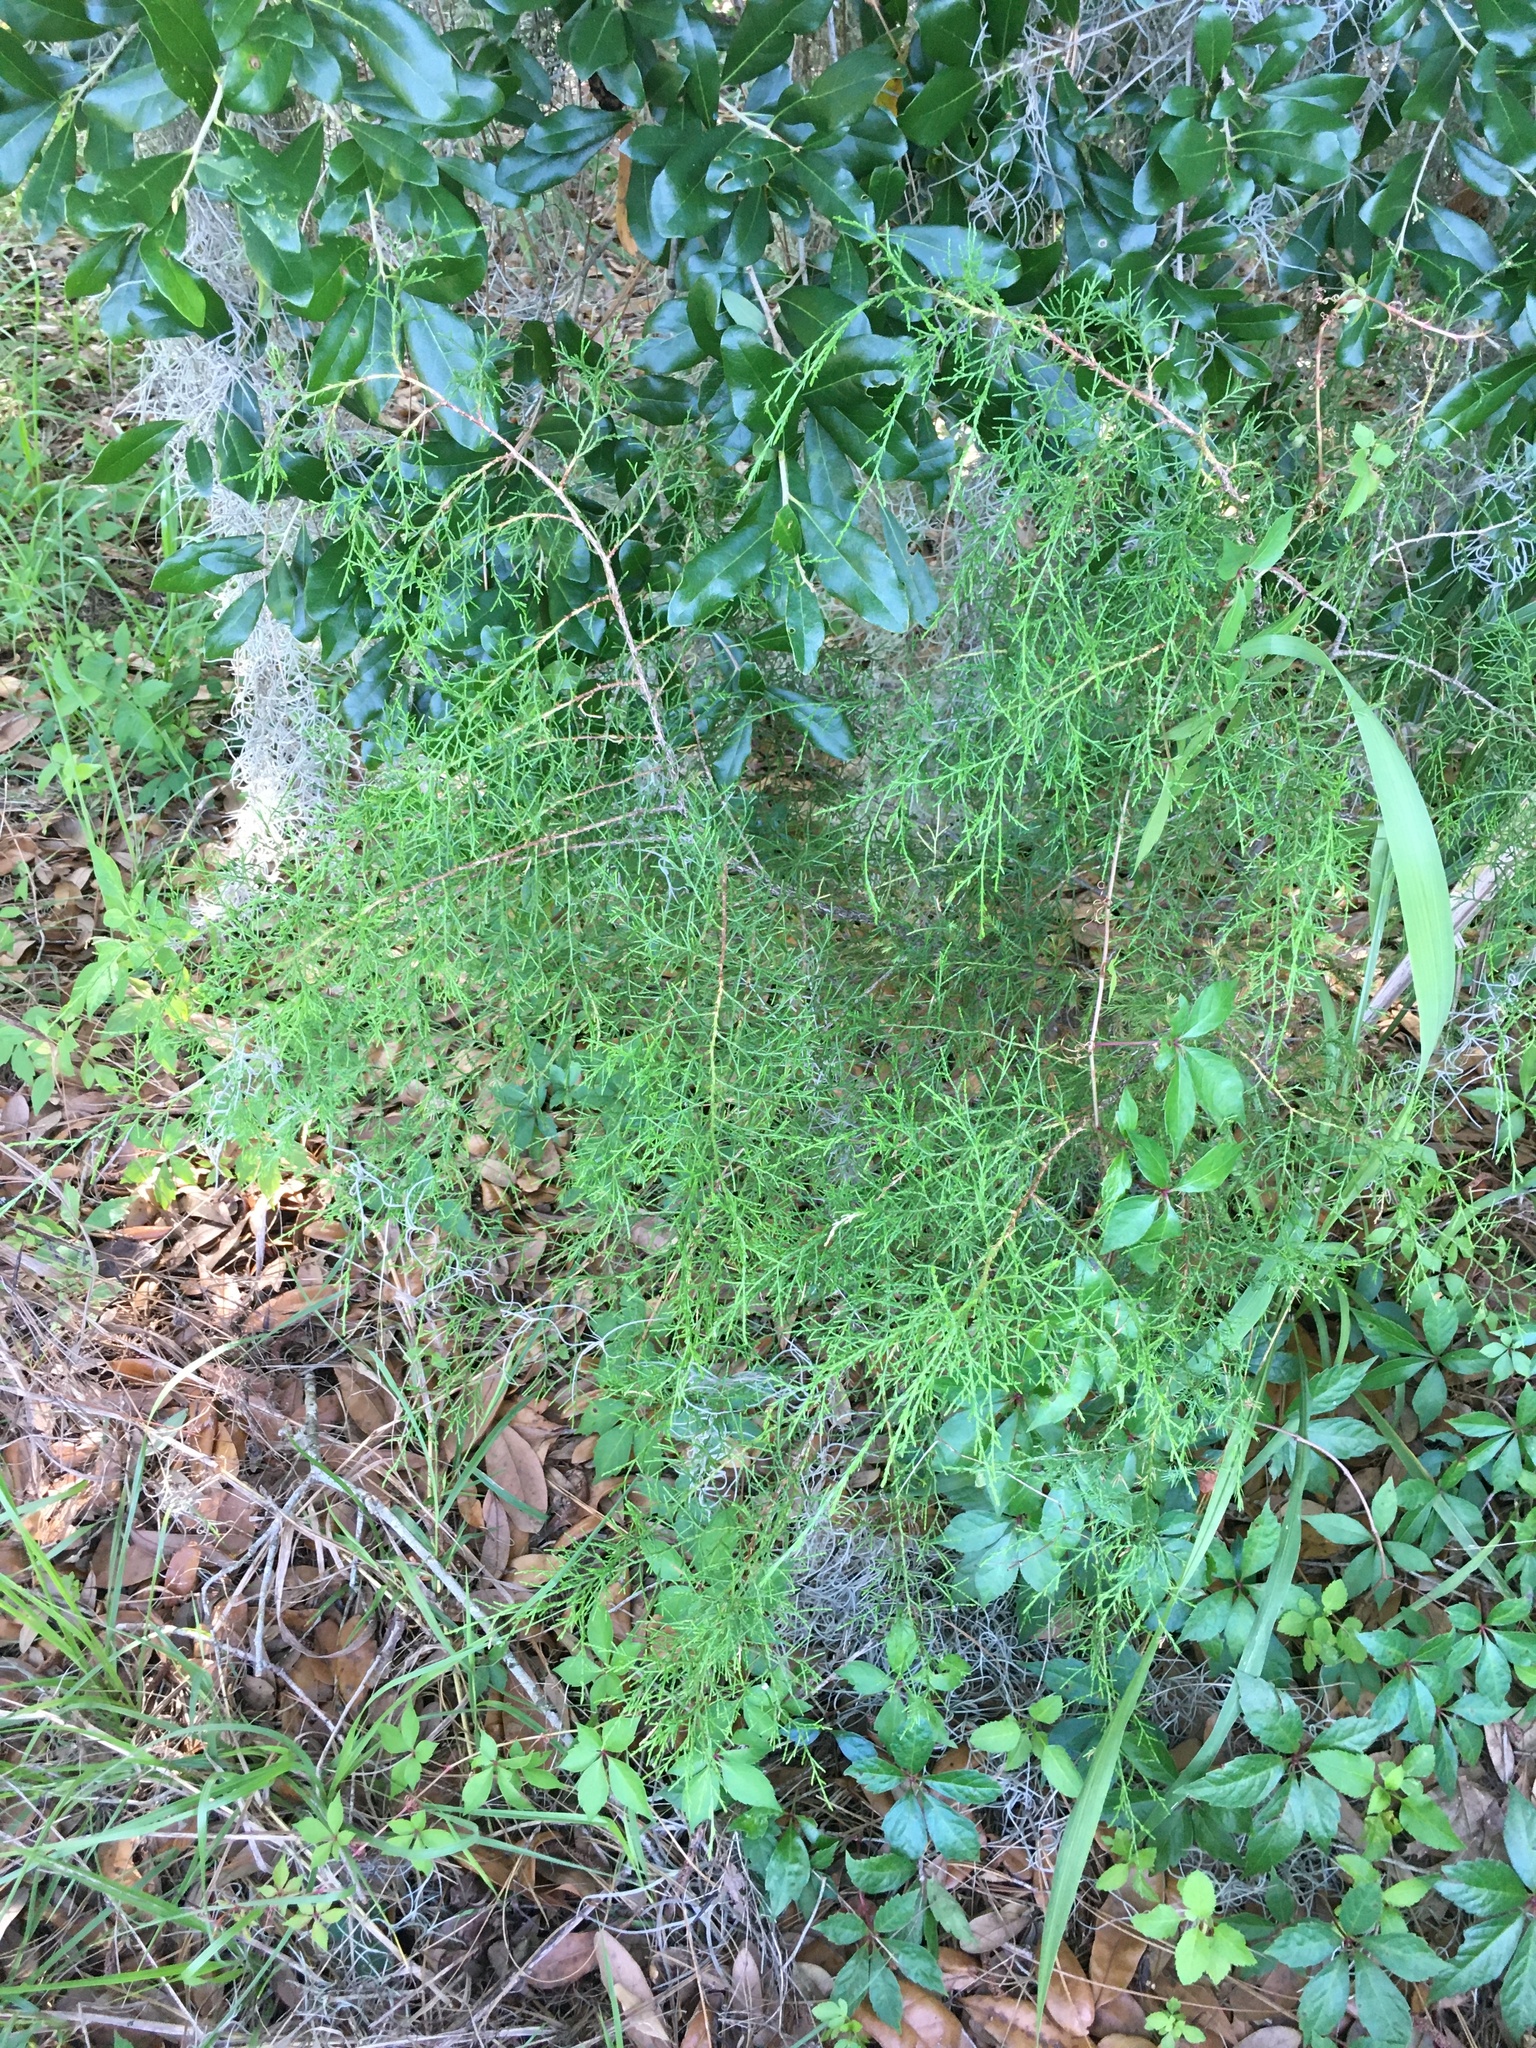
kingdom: Plantae
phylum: Tracheophyta
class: Pinopsida
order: Pinales
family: Cupressaceae
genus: Juniperus
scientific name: Juniperus virginiana
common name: Red juniper
